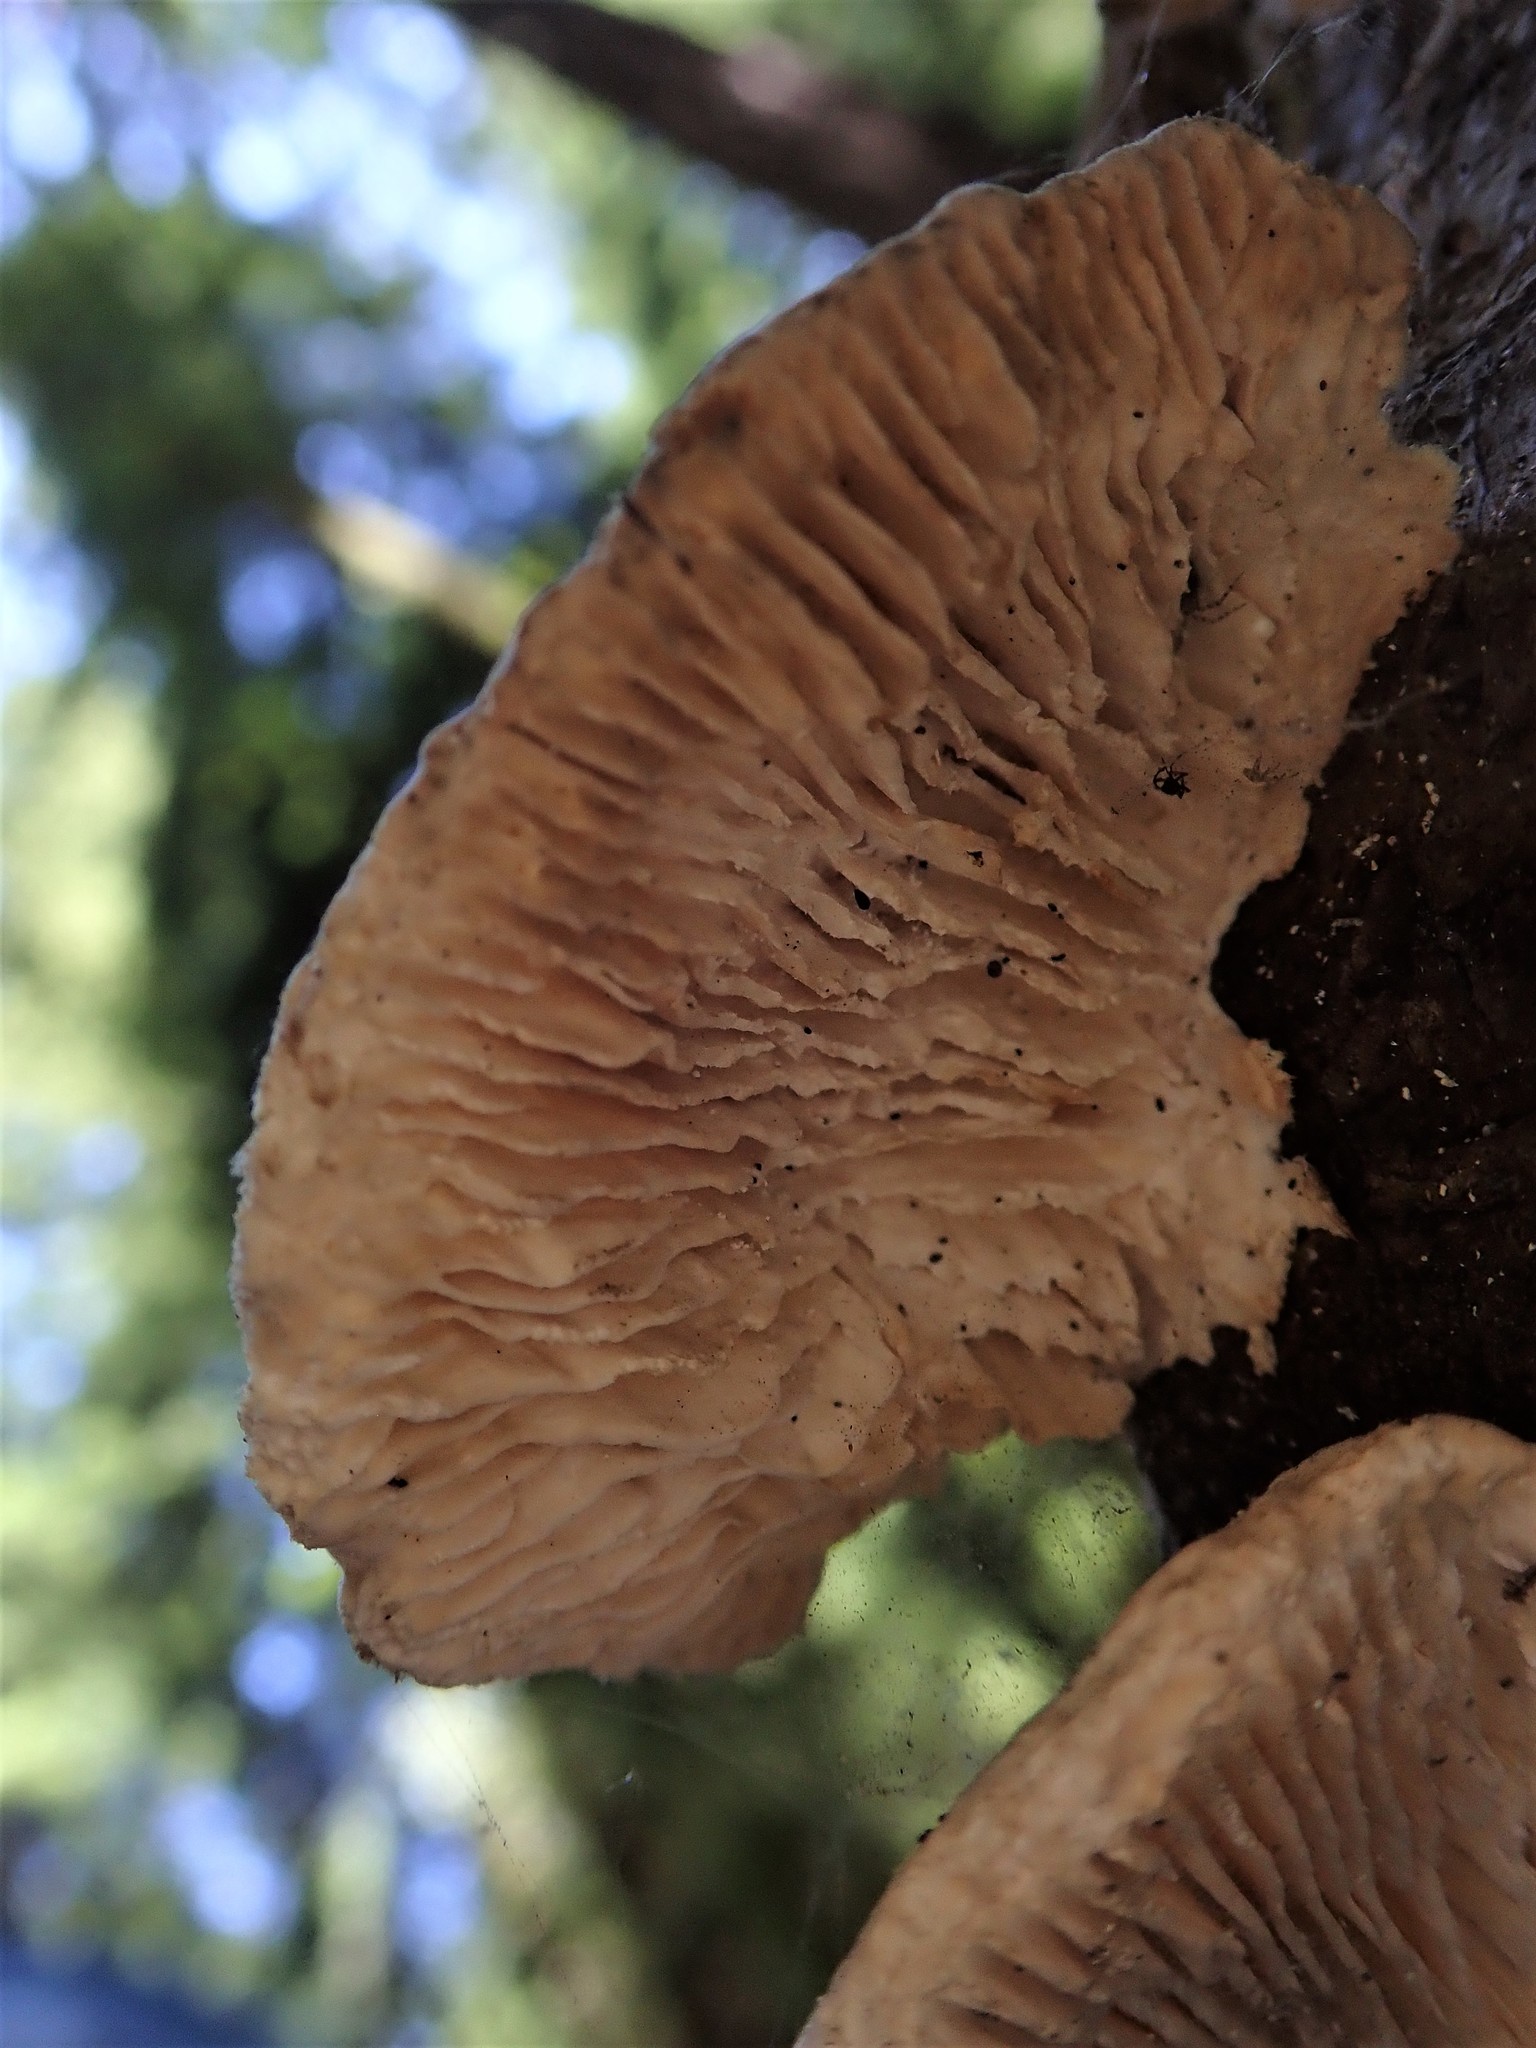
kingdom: Fungi
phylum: Basidiomycota
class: Agaricomycetes
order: Polyporales
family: Polyporaceae
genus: Lenzites
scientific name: Lenzites betulinus
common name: Birch mazegill
